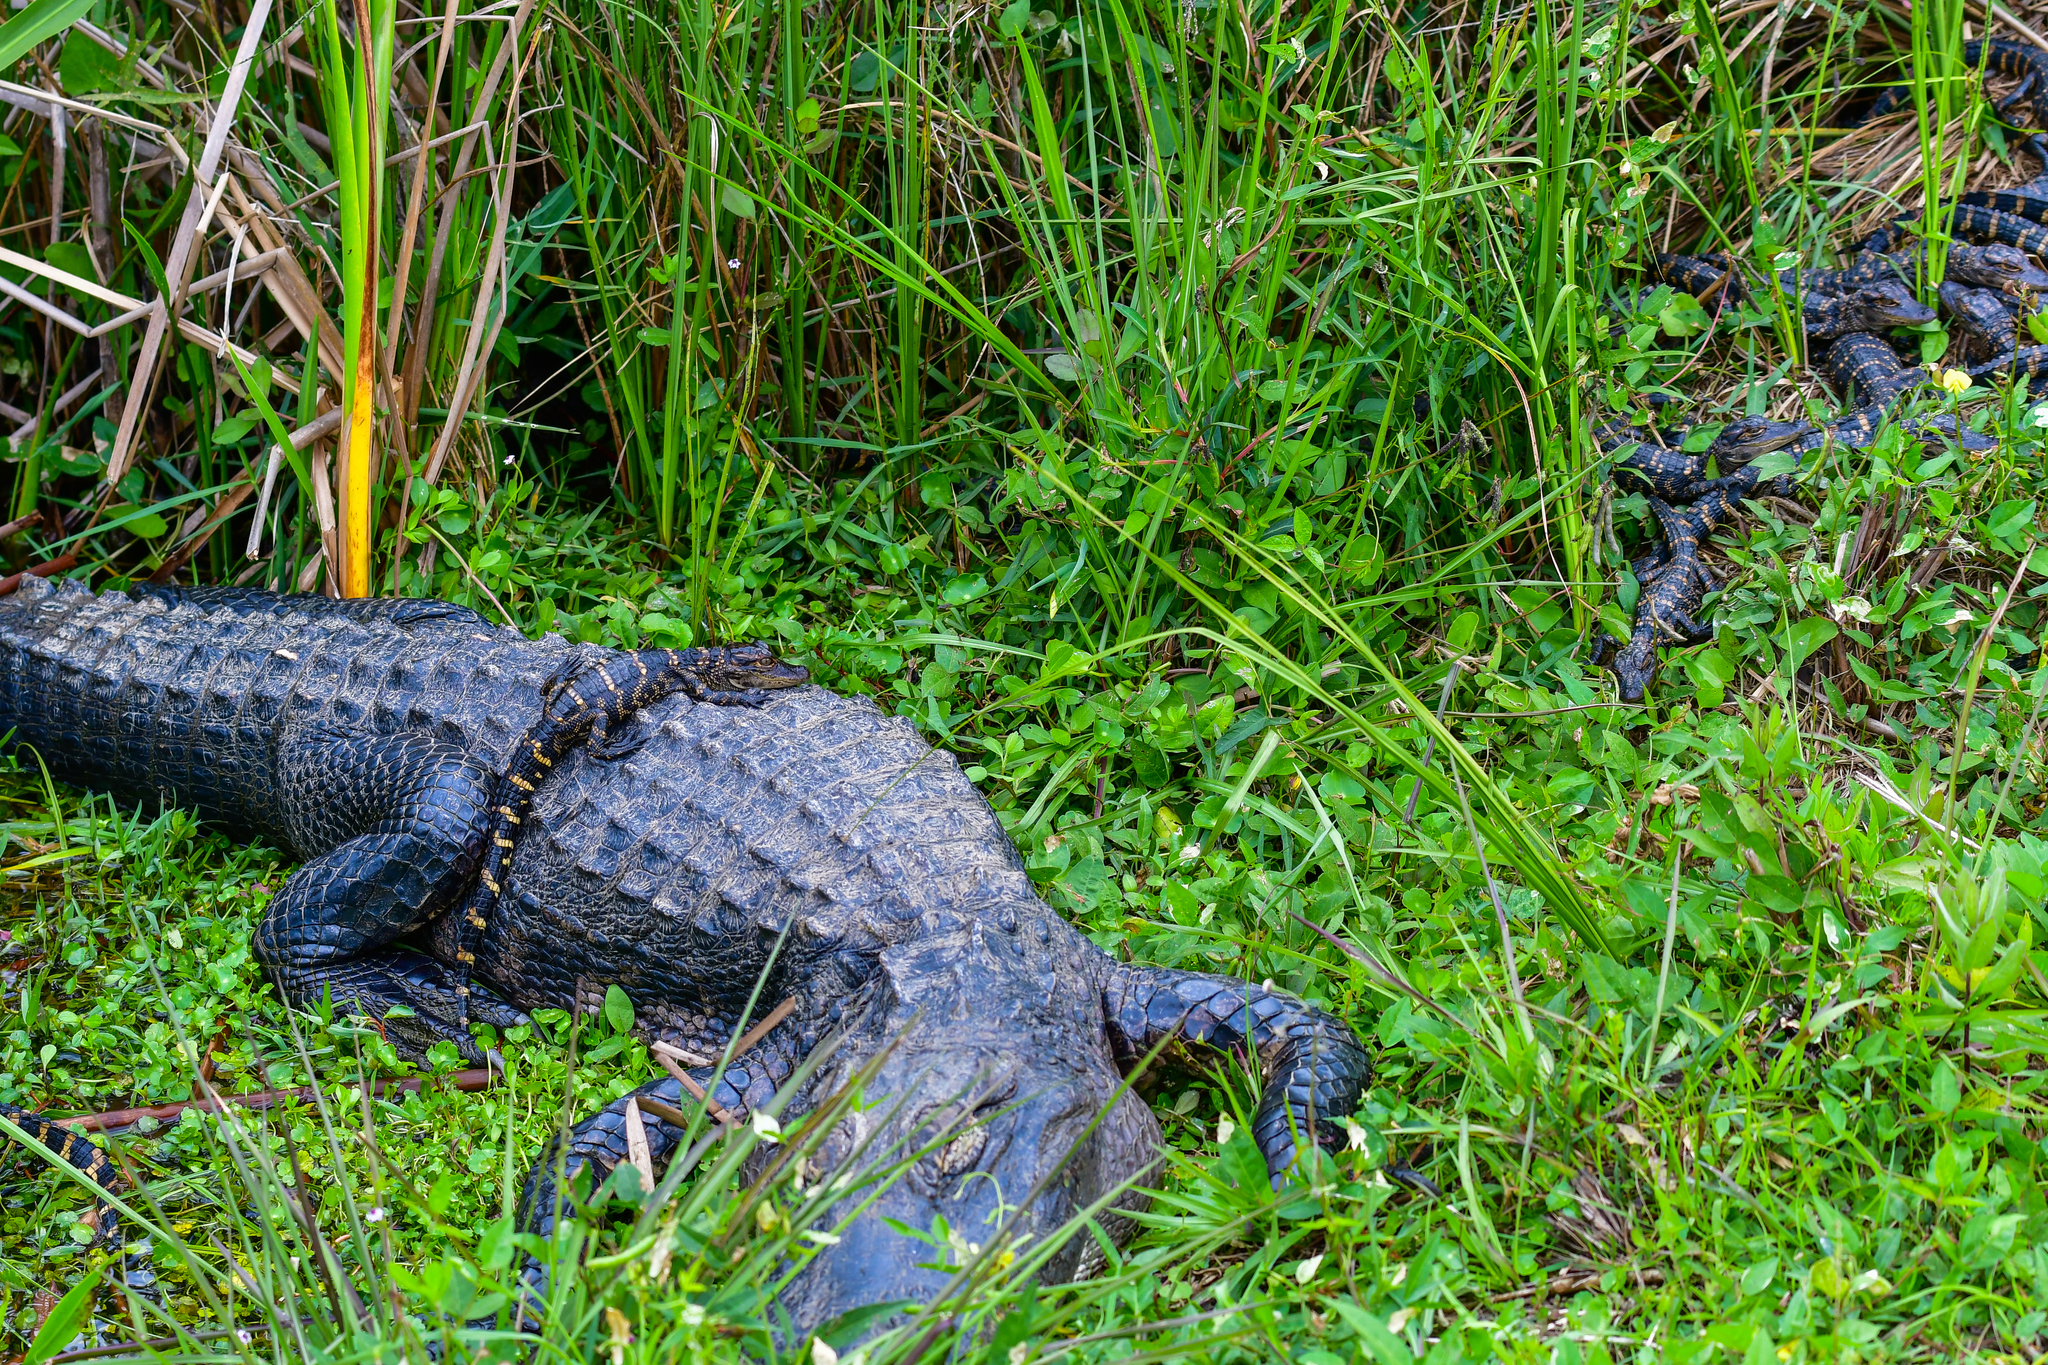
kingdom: Animalia
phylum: Chordata
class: Crocodylia
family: Alligatoridae
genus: Alligator
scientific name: Alligator mississippiensis
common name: American alligator
